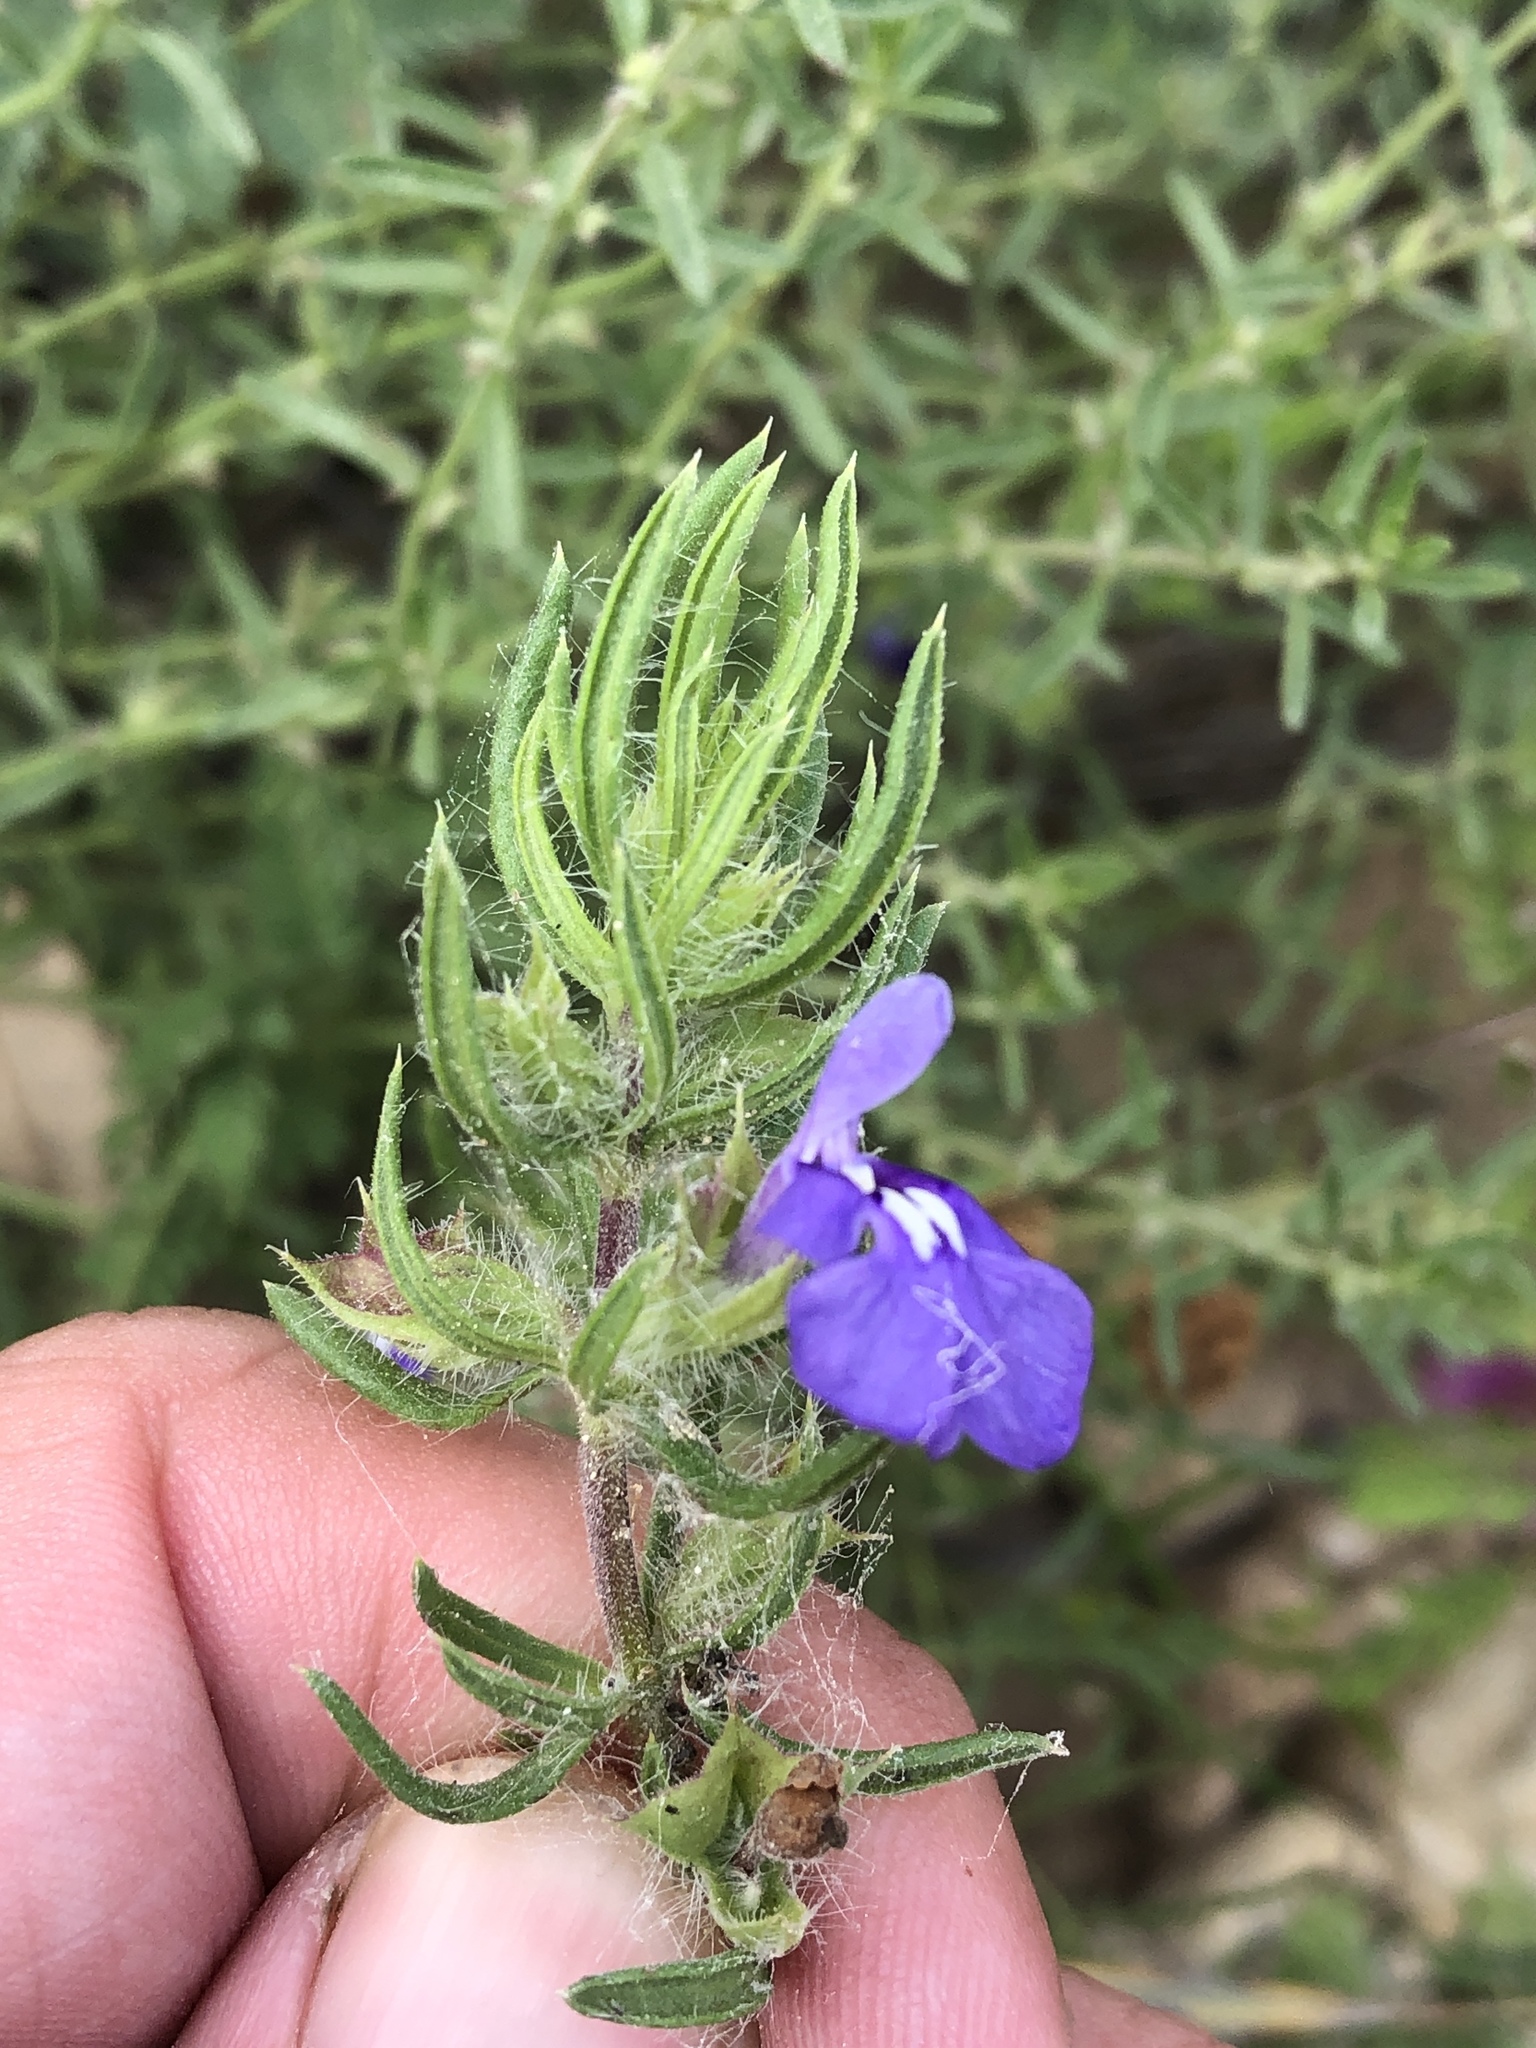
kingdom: Plantae
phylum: Tracheophyta
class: Magnoliopsida
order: Lamiales
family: Lamiaceae
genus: Salvia
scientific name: Salvia texana
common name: Texas sage
